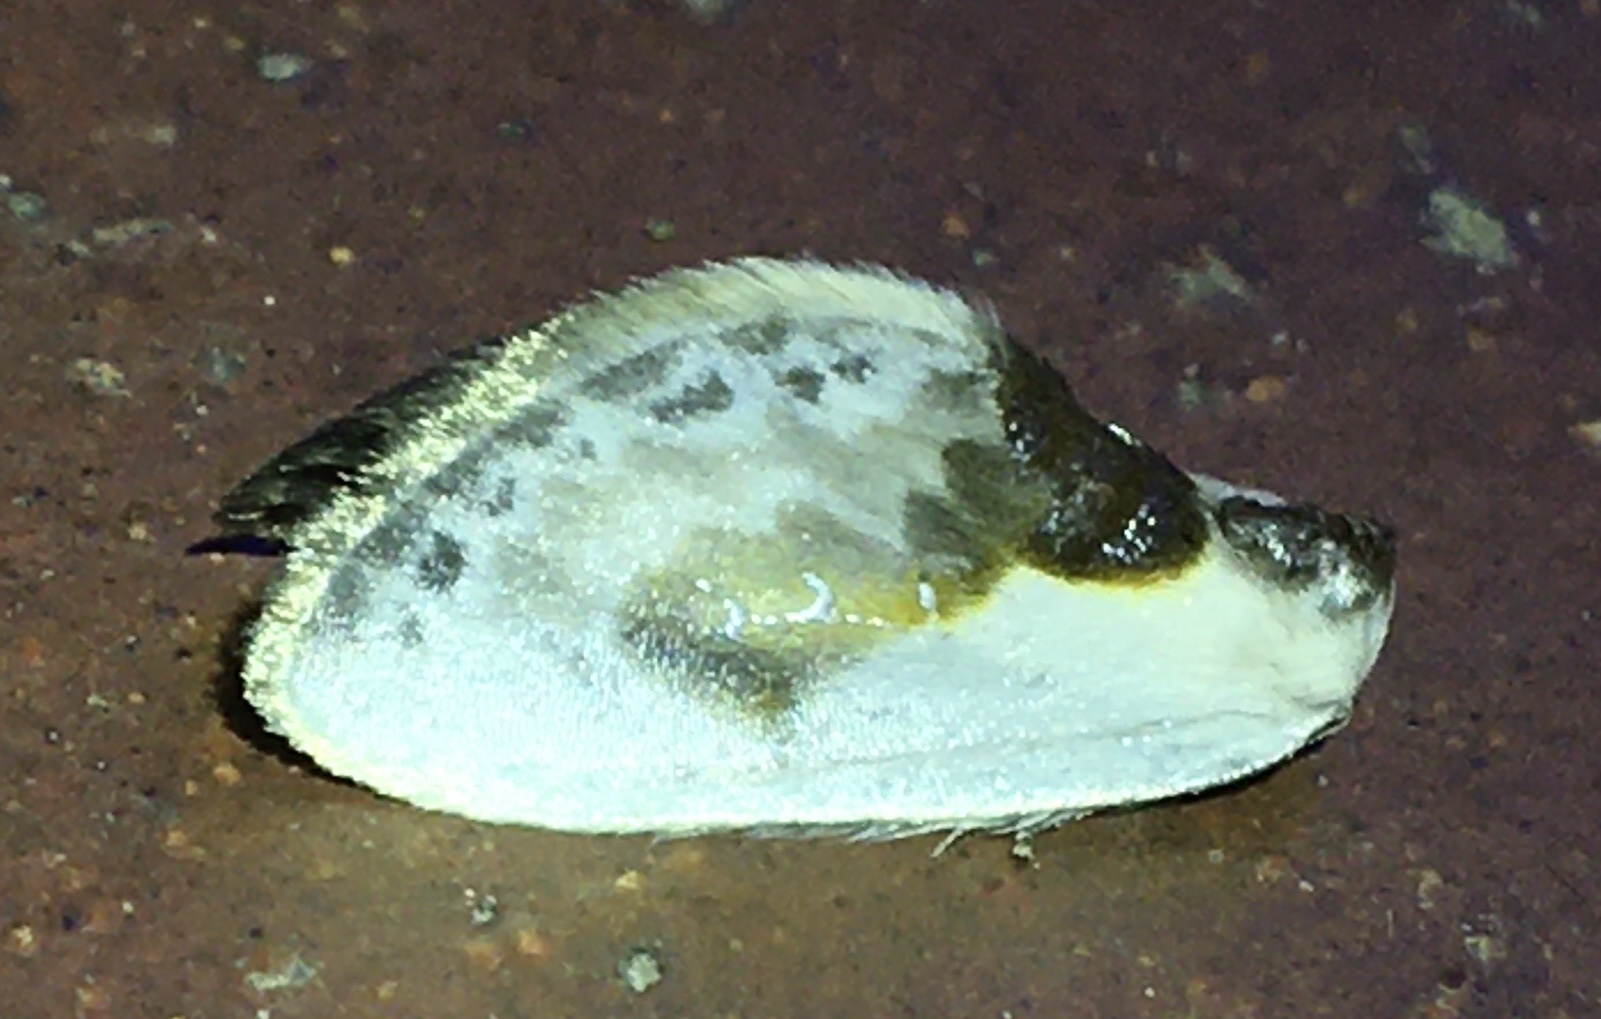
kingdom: Animalia
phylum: Arthropoda
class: Insecta
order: Lepidoptera
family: Drepanidae
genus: Cilix
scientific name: Cilix glaucata
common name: Chinese character
